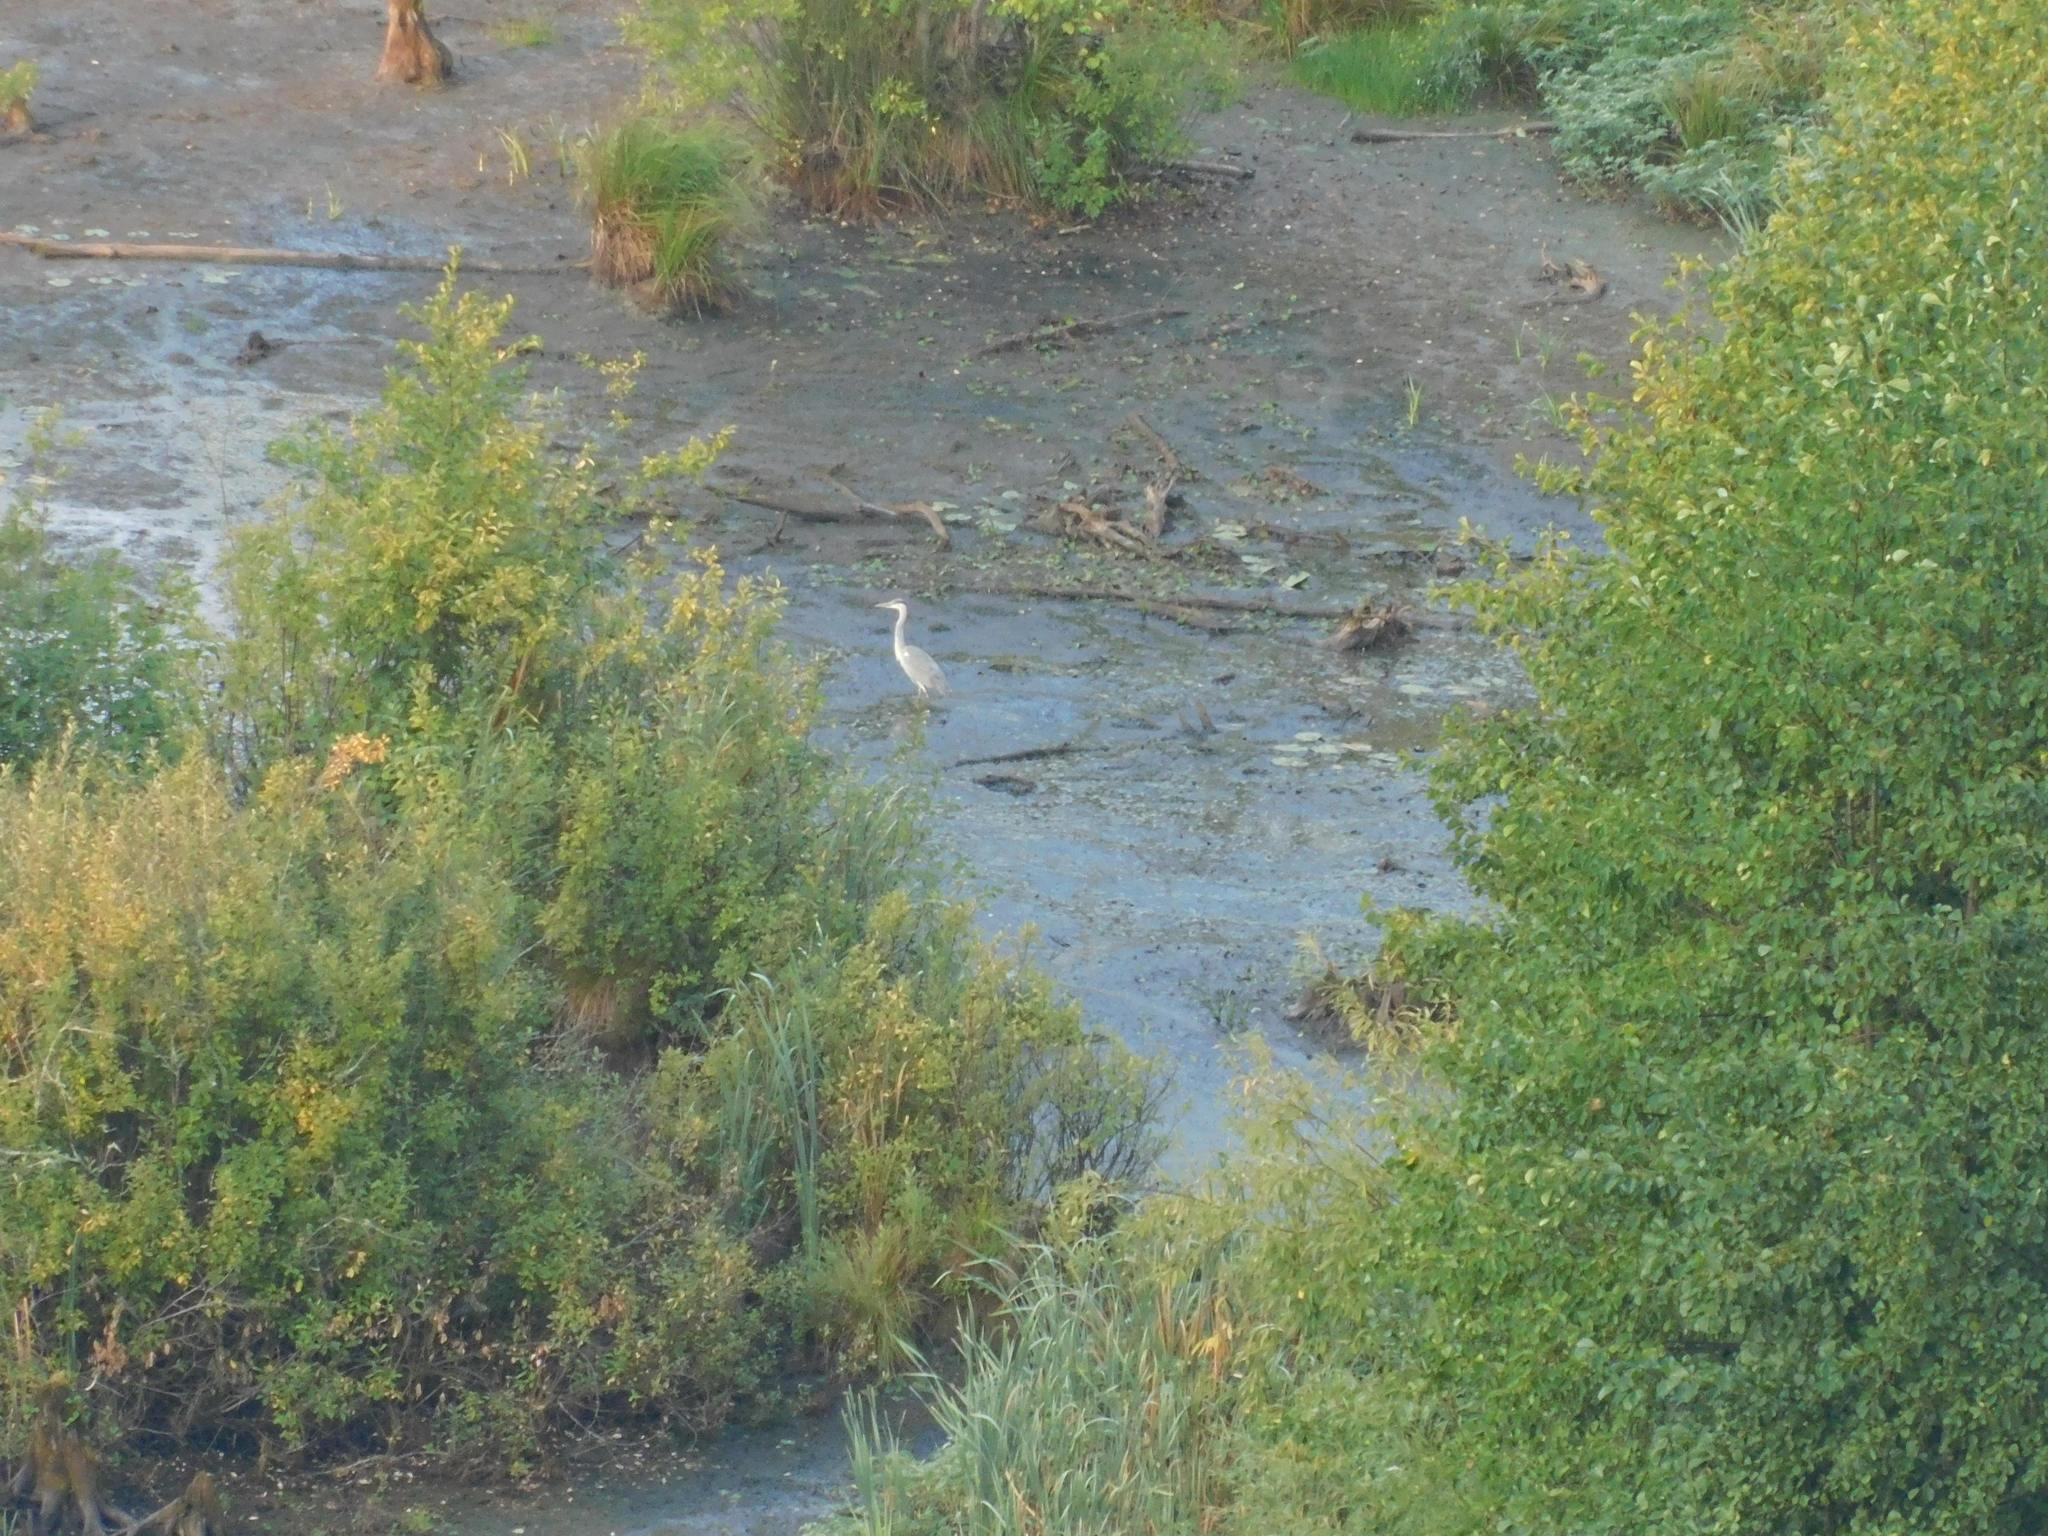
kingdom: Animalia
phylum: Chordata
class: Aves
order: Pelecaniformes
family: Ardeidae
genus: Ardea
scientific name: Ardea cinerea
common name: Grey heron
